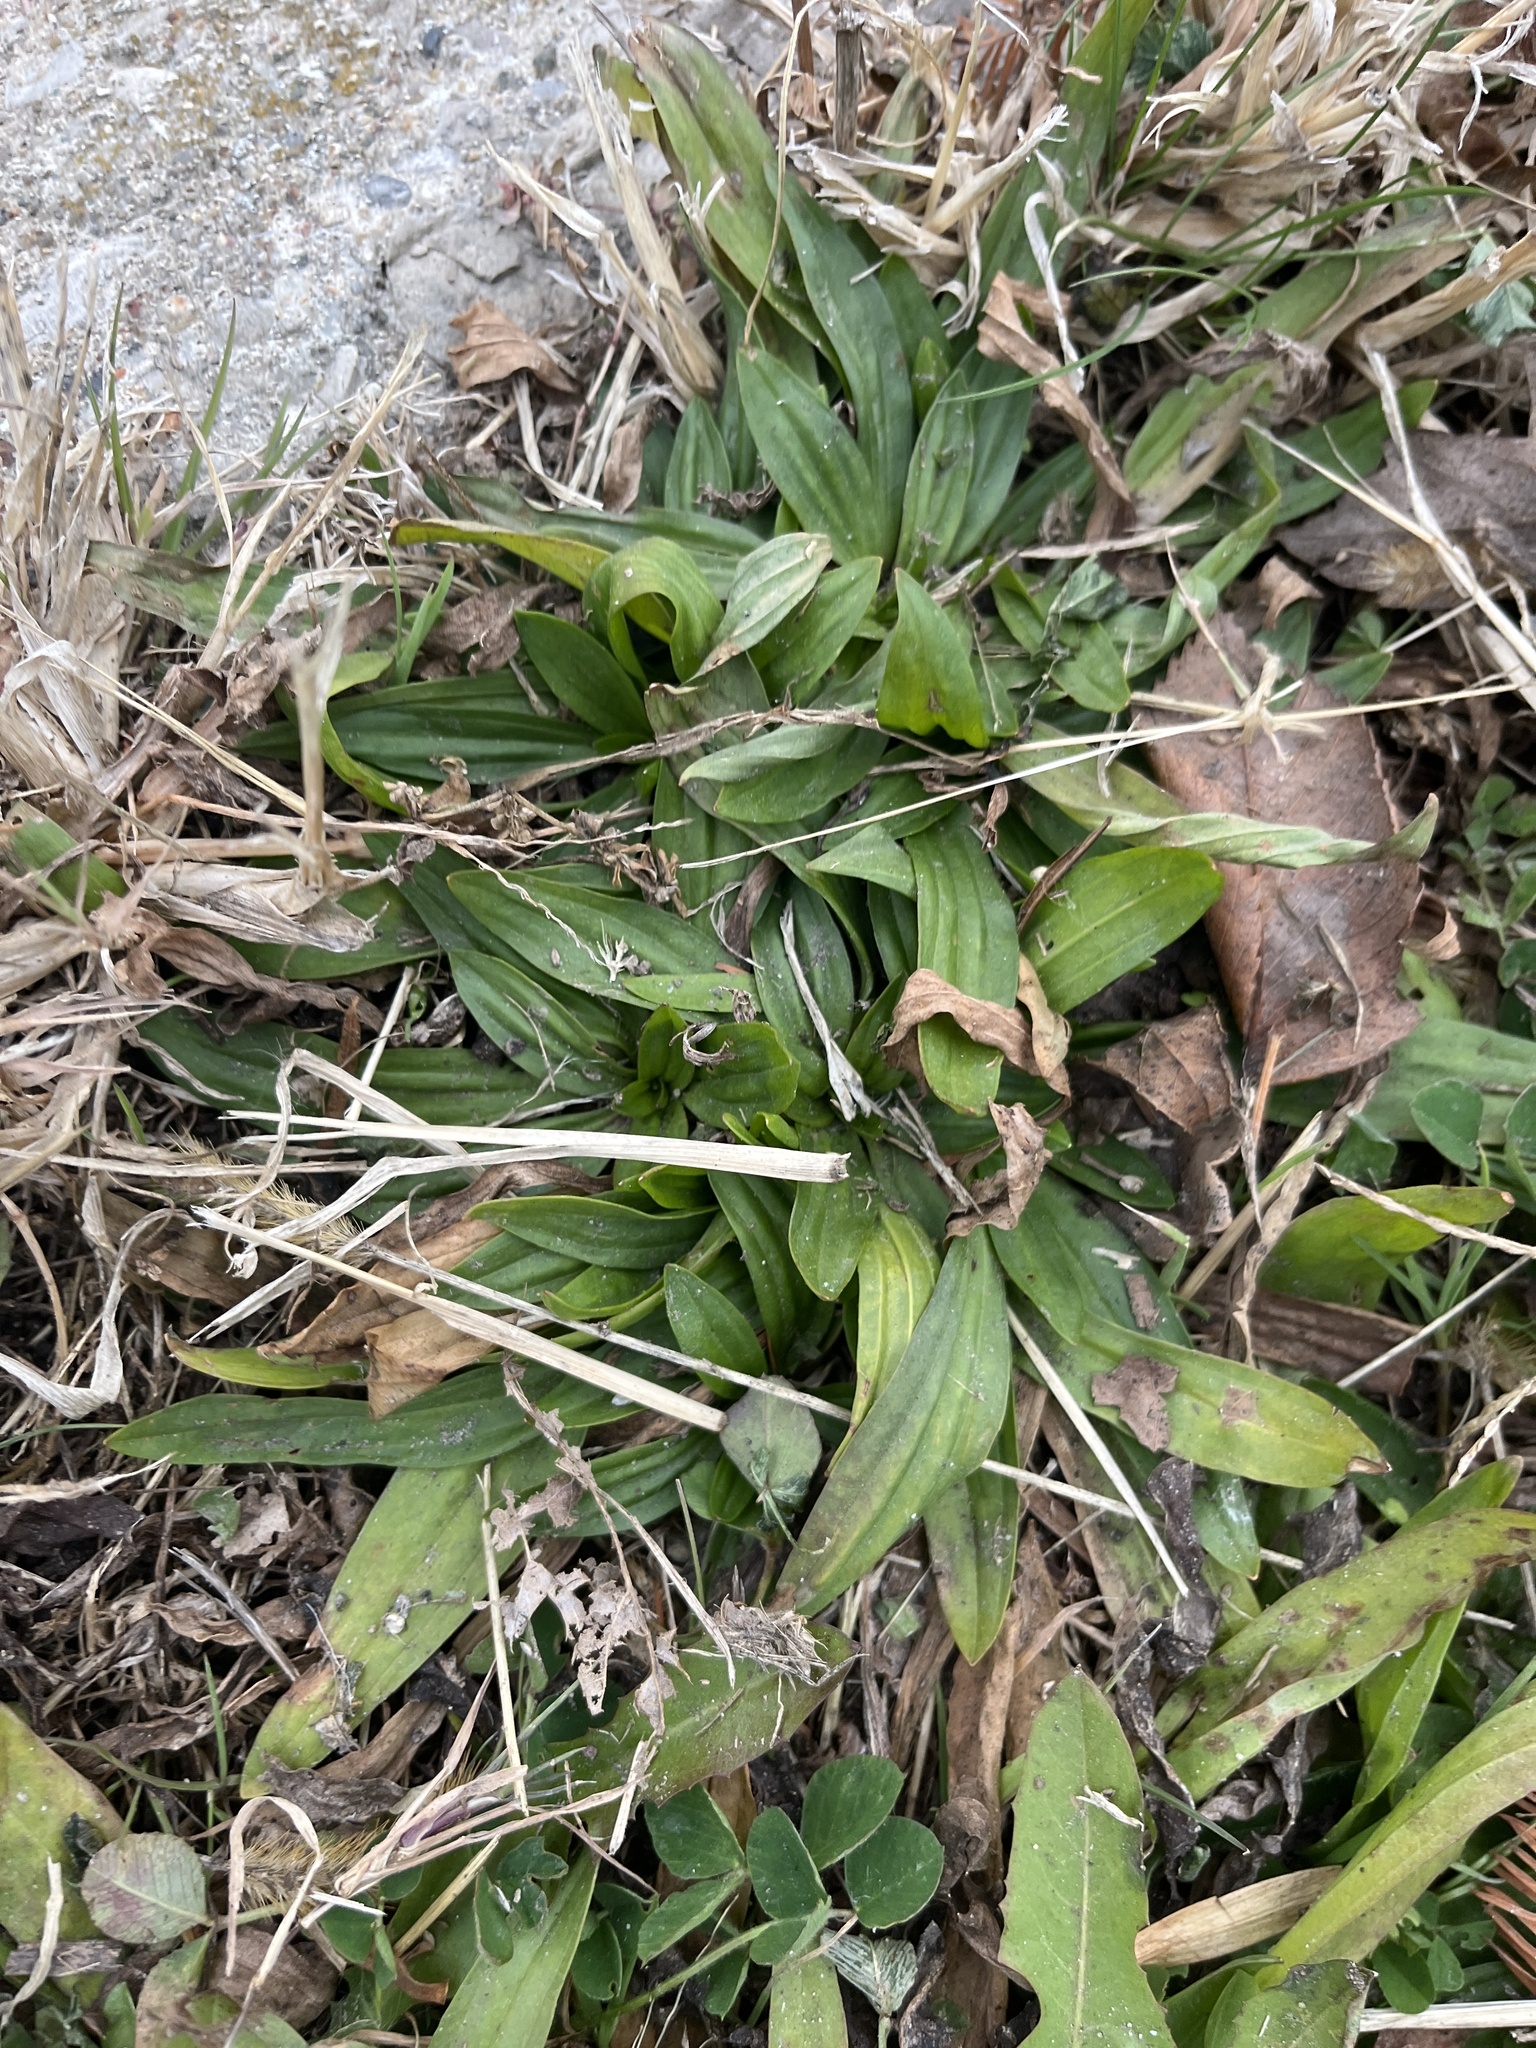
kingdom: Plantae
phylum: Tracheophyta
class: Magnoliopsida
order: Lamiales
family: Plantaginaceae
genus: Plantago
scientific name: Plantago lanceolata
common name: Ribwort plantain
